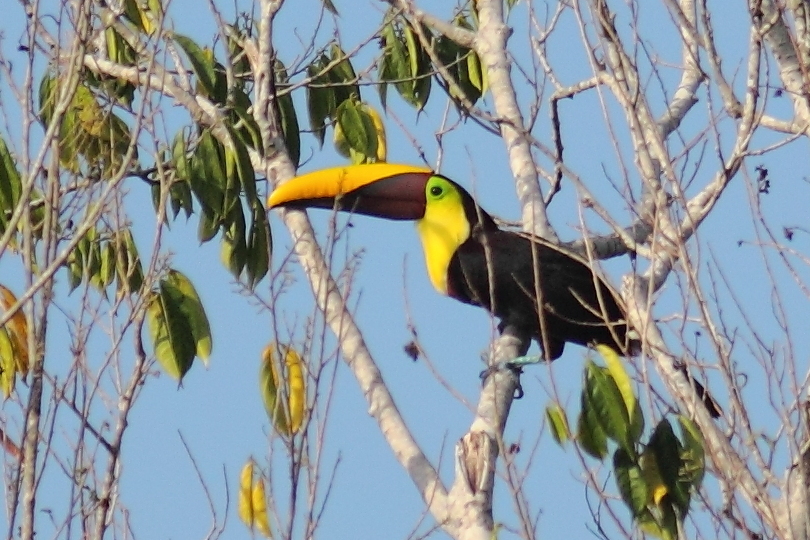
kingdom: Animalia
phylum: Chordata
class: Aves
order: Piciformes
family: Ramphastidae
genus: Ramphastos
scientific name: Ramphastos ambiguus
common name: Yellow-throated toucan
